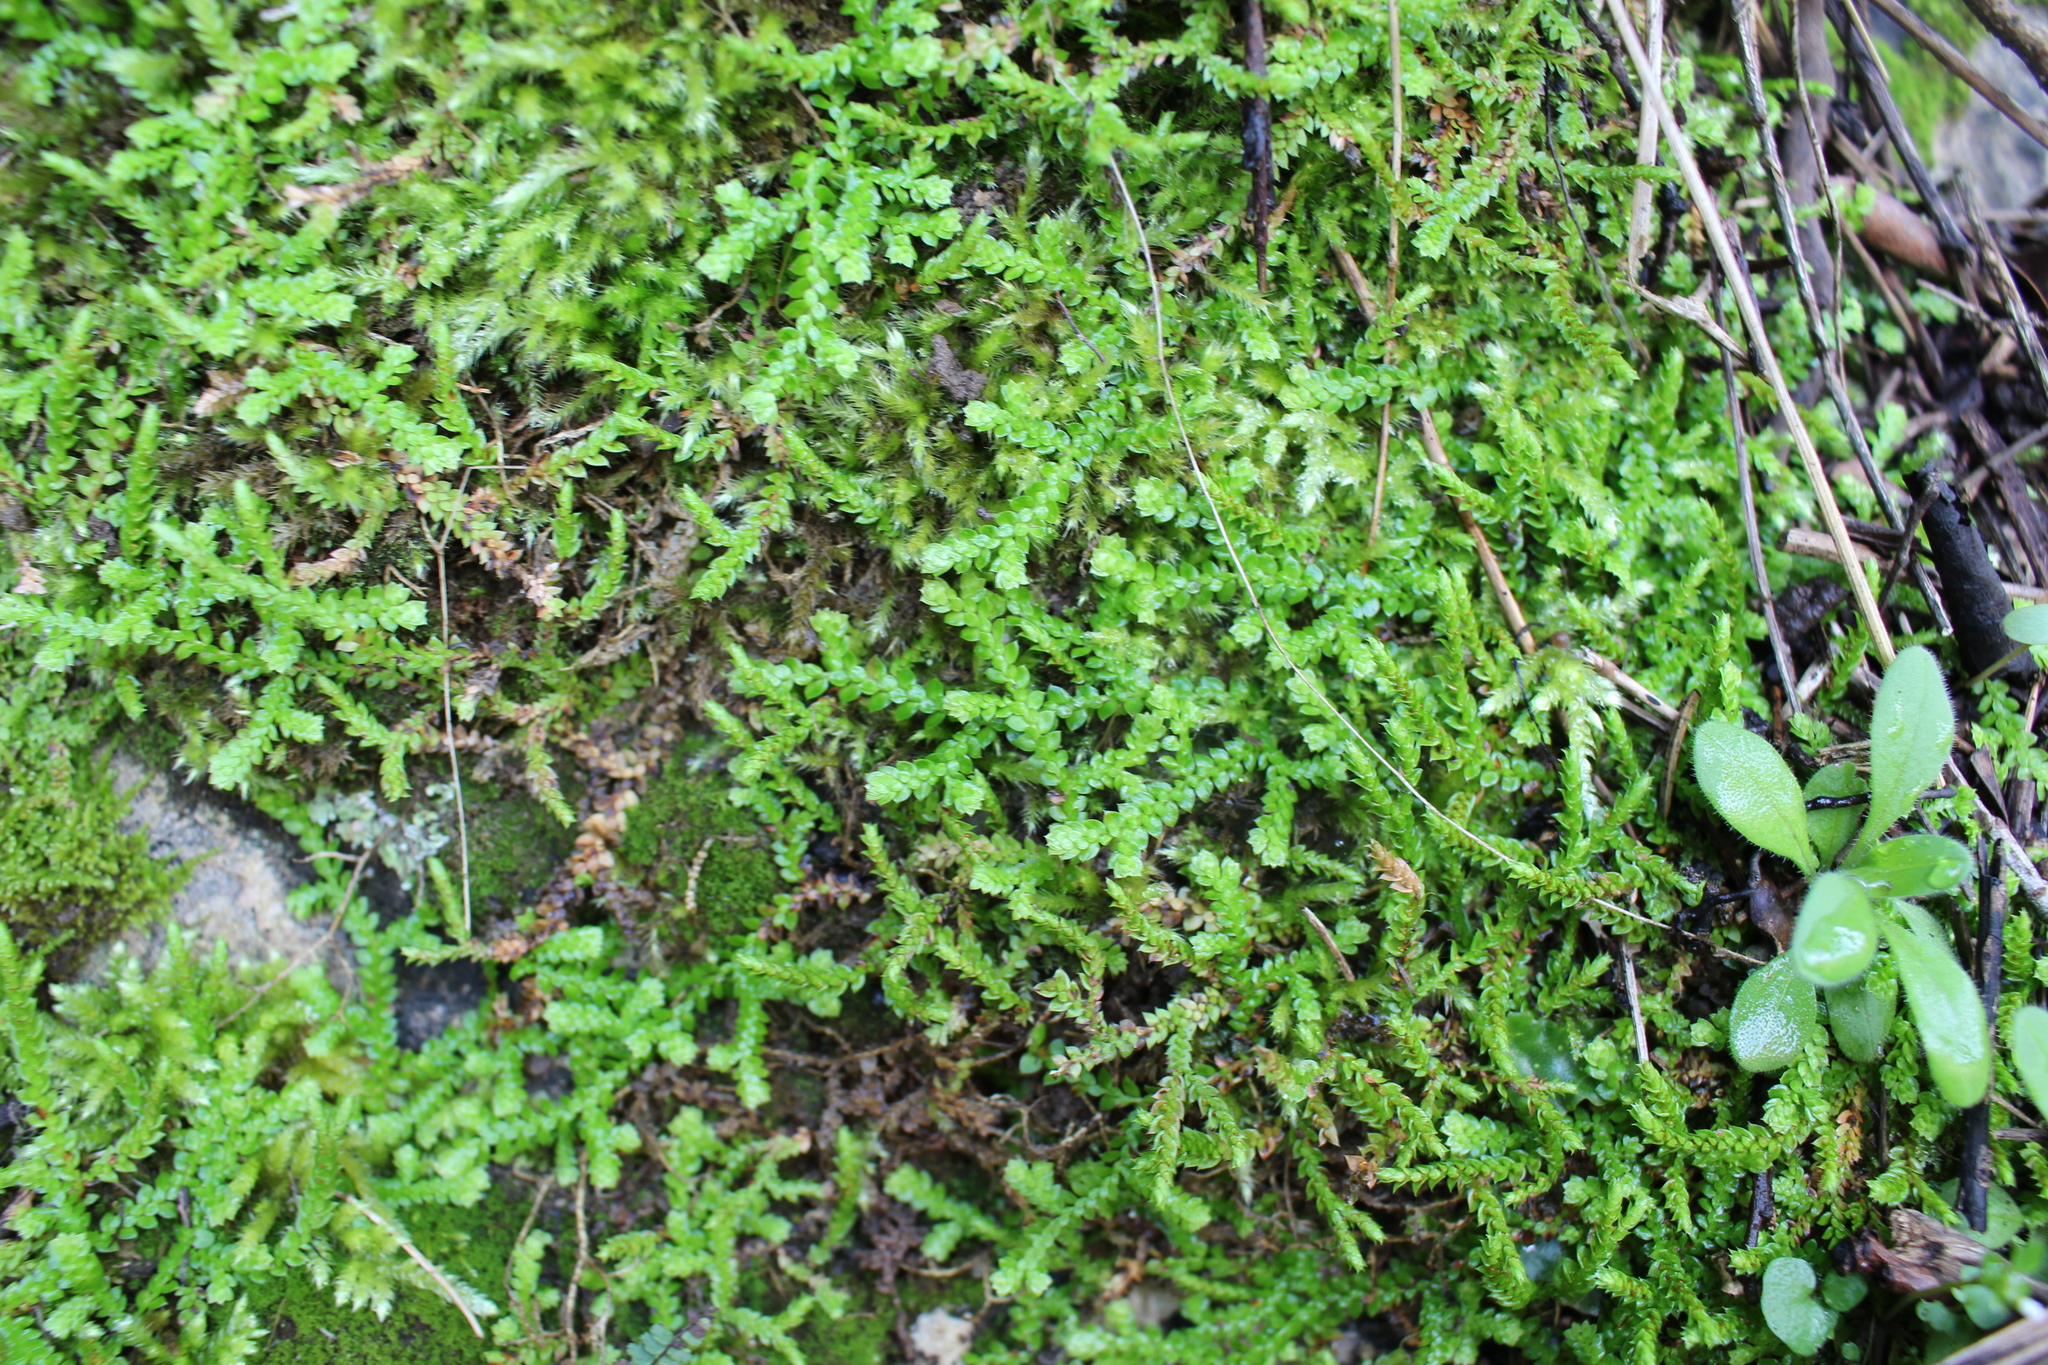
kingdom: Plantae
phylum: Tracheophyta
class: Lycopodiopsida
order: Selaginellales
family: Selaginellaceae
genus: Selaginella
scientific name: Selaginella denticulata
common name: Toothed-leaved clubmoss
